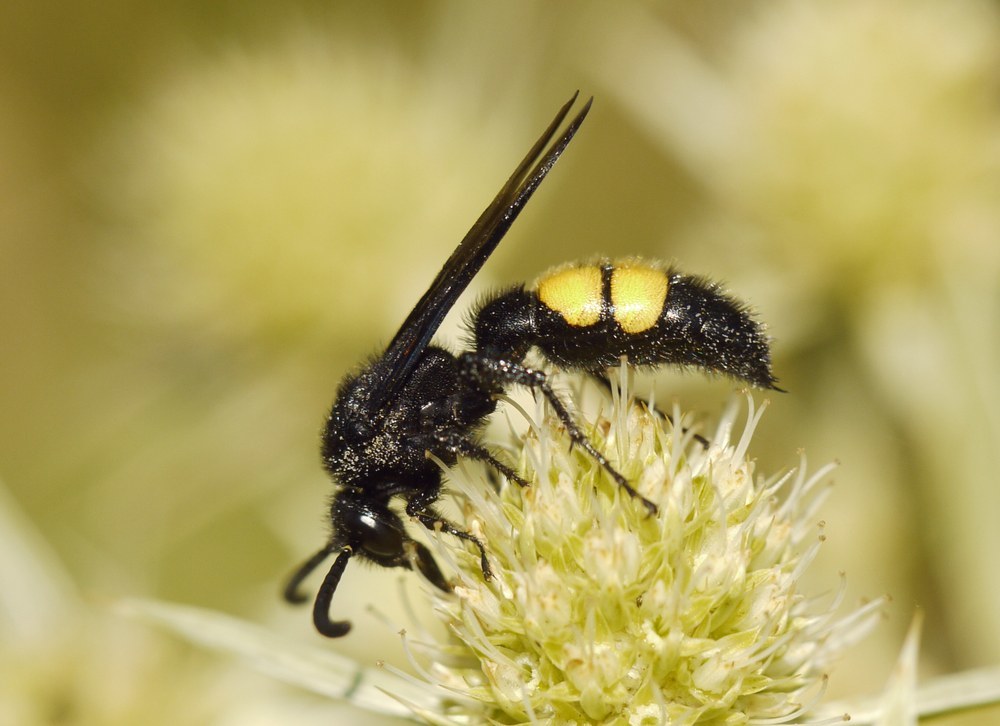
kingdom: Animalia
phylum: Arthropoda
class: Insecta
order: Hymenoptera
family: Scoliidae
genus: Scolia
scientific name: Scolia hirta
